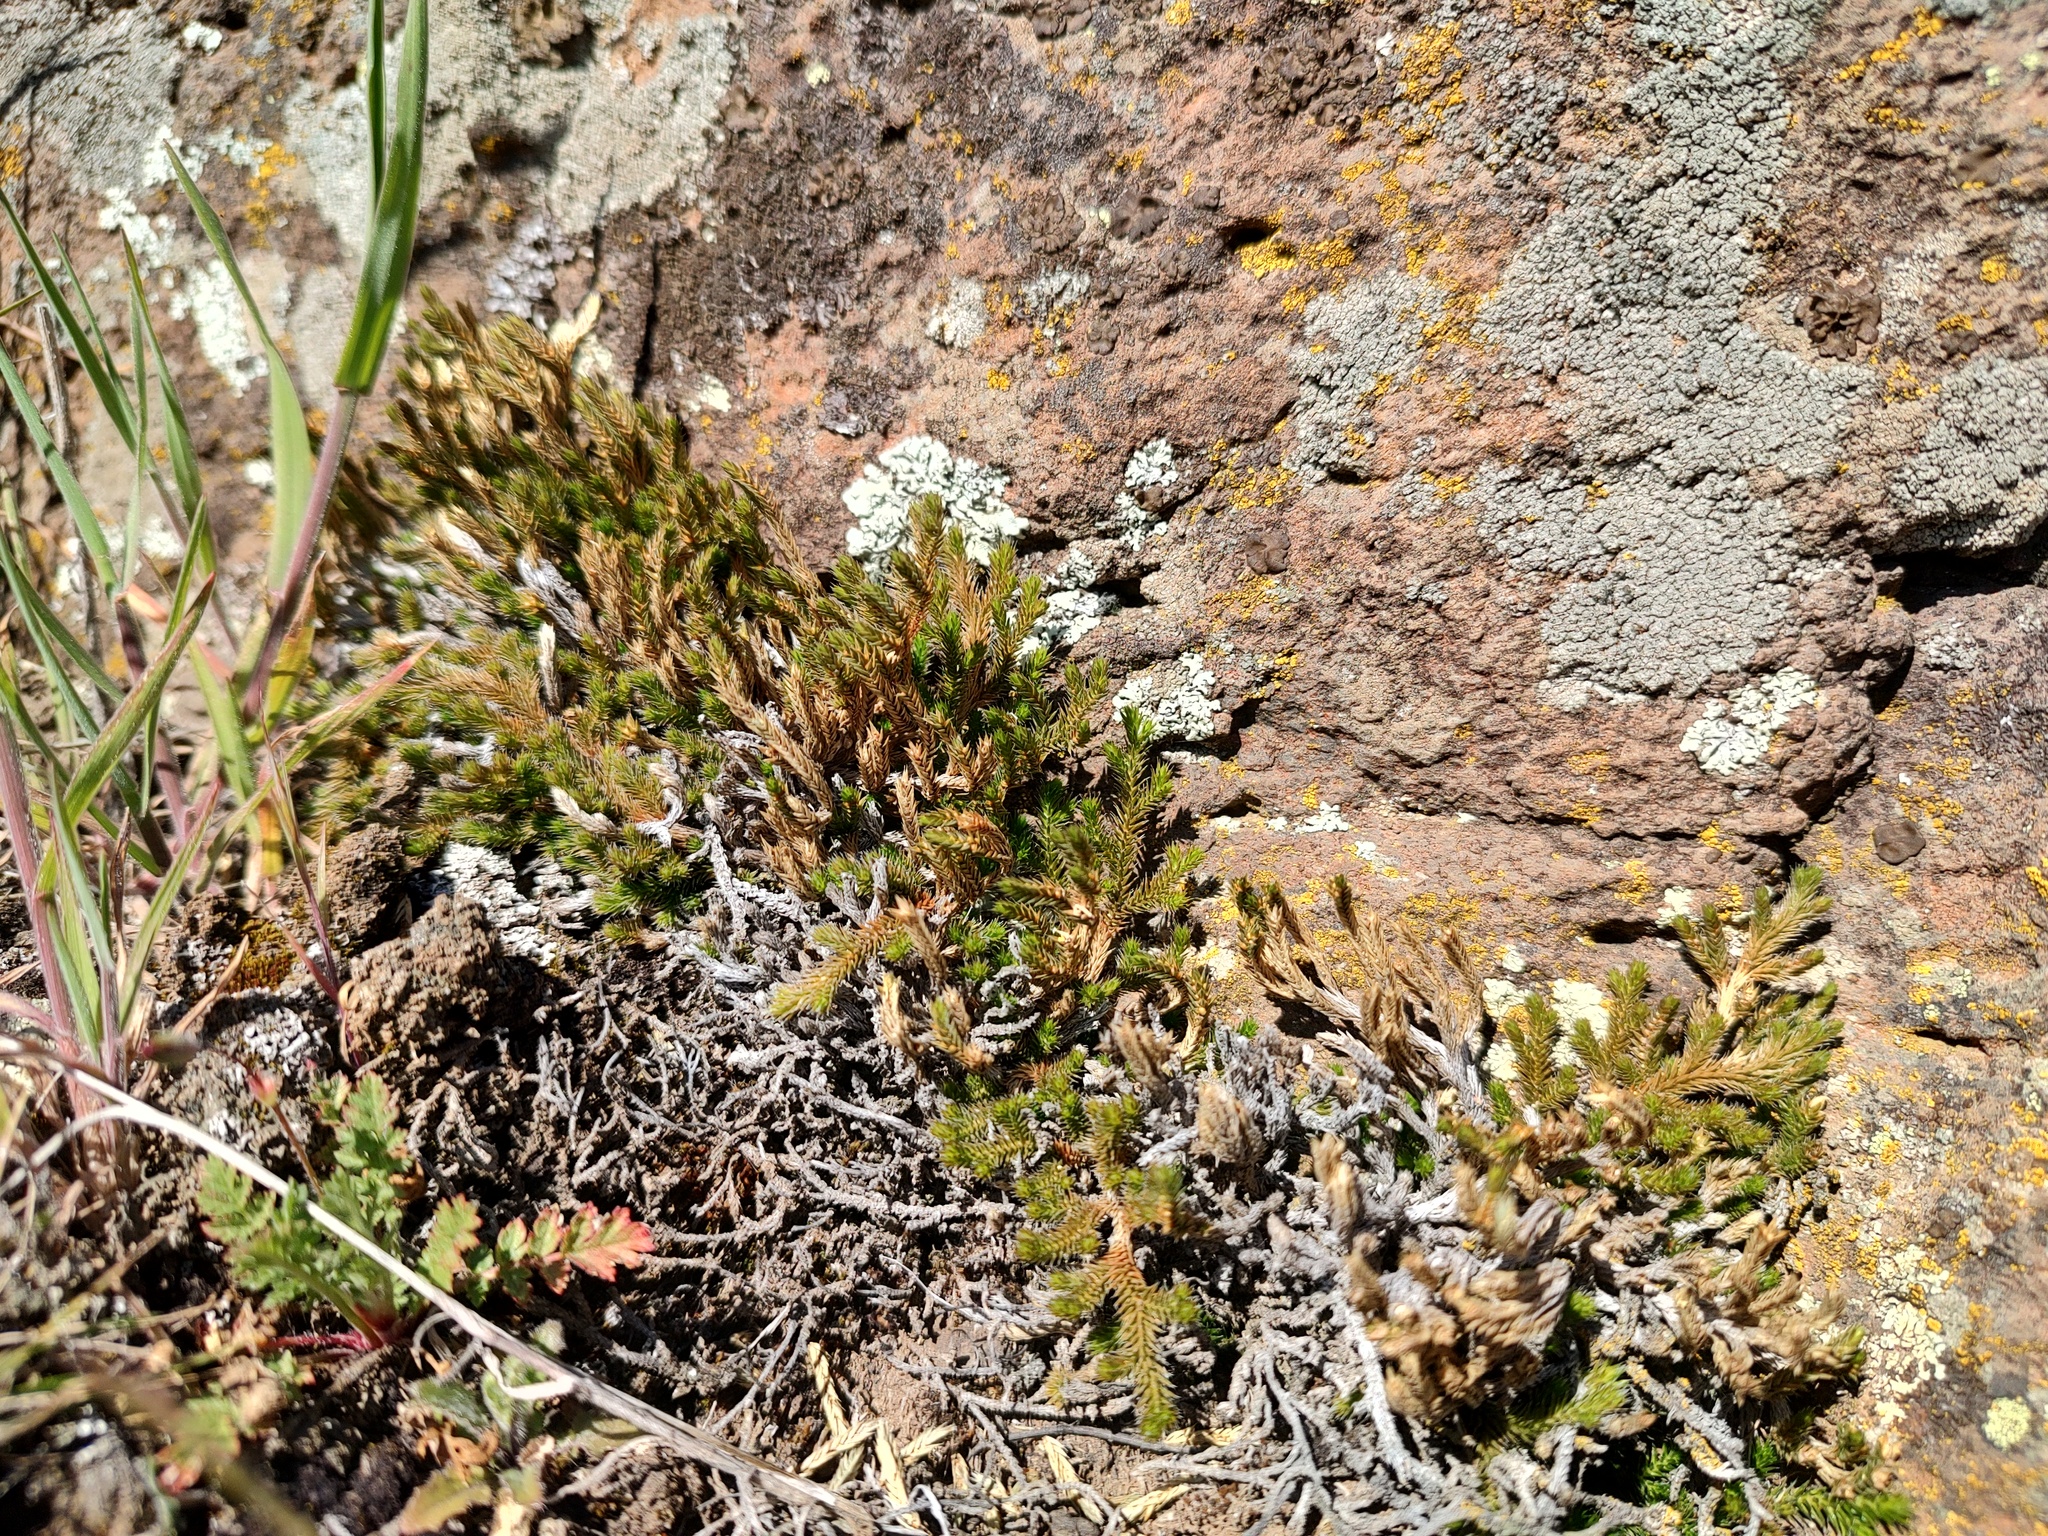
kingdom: Plantae
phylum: Tracheophyta
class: Lycopodiopsida
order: Selaginellales
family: Selaginellaceae
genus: Selaginella
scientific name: Selaginella wallacei
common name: Wallace's selaginella
